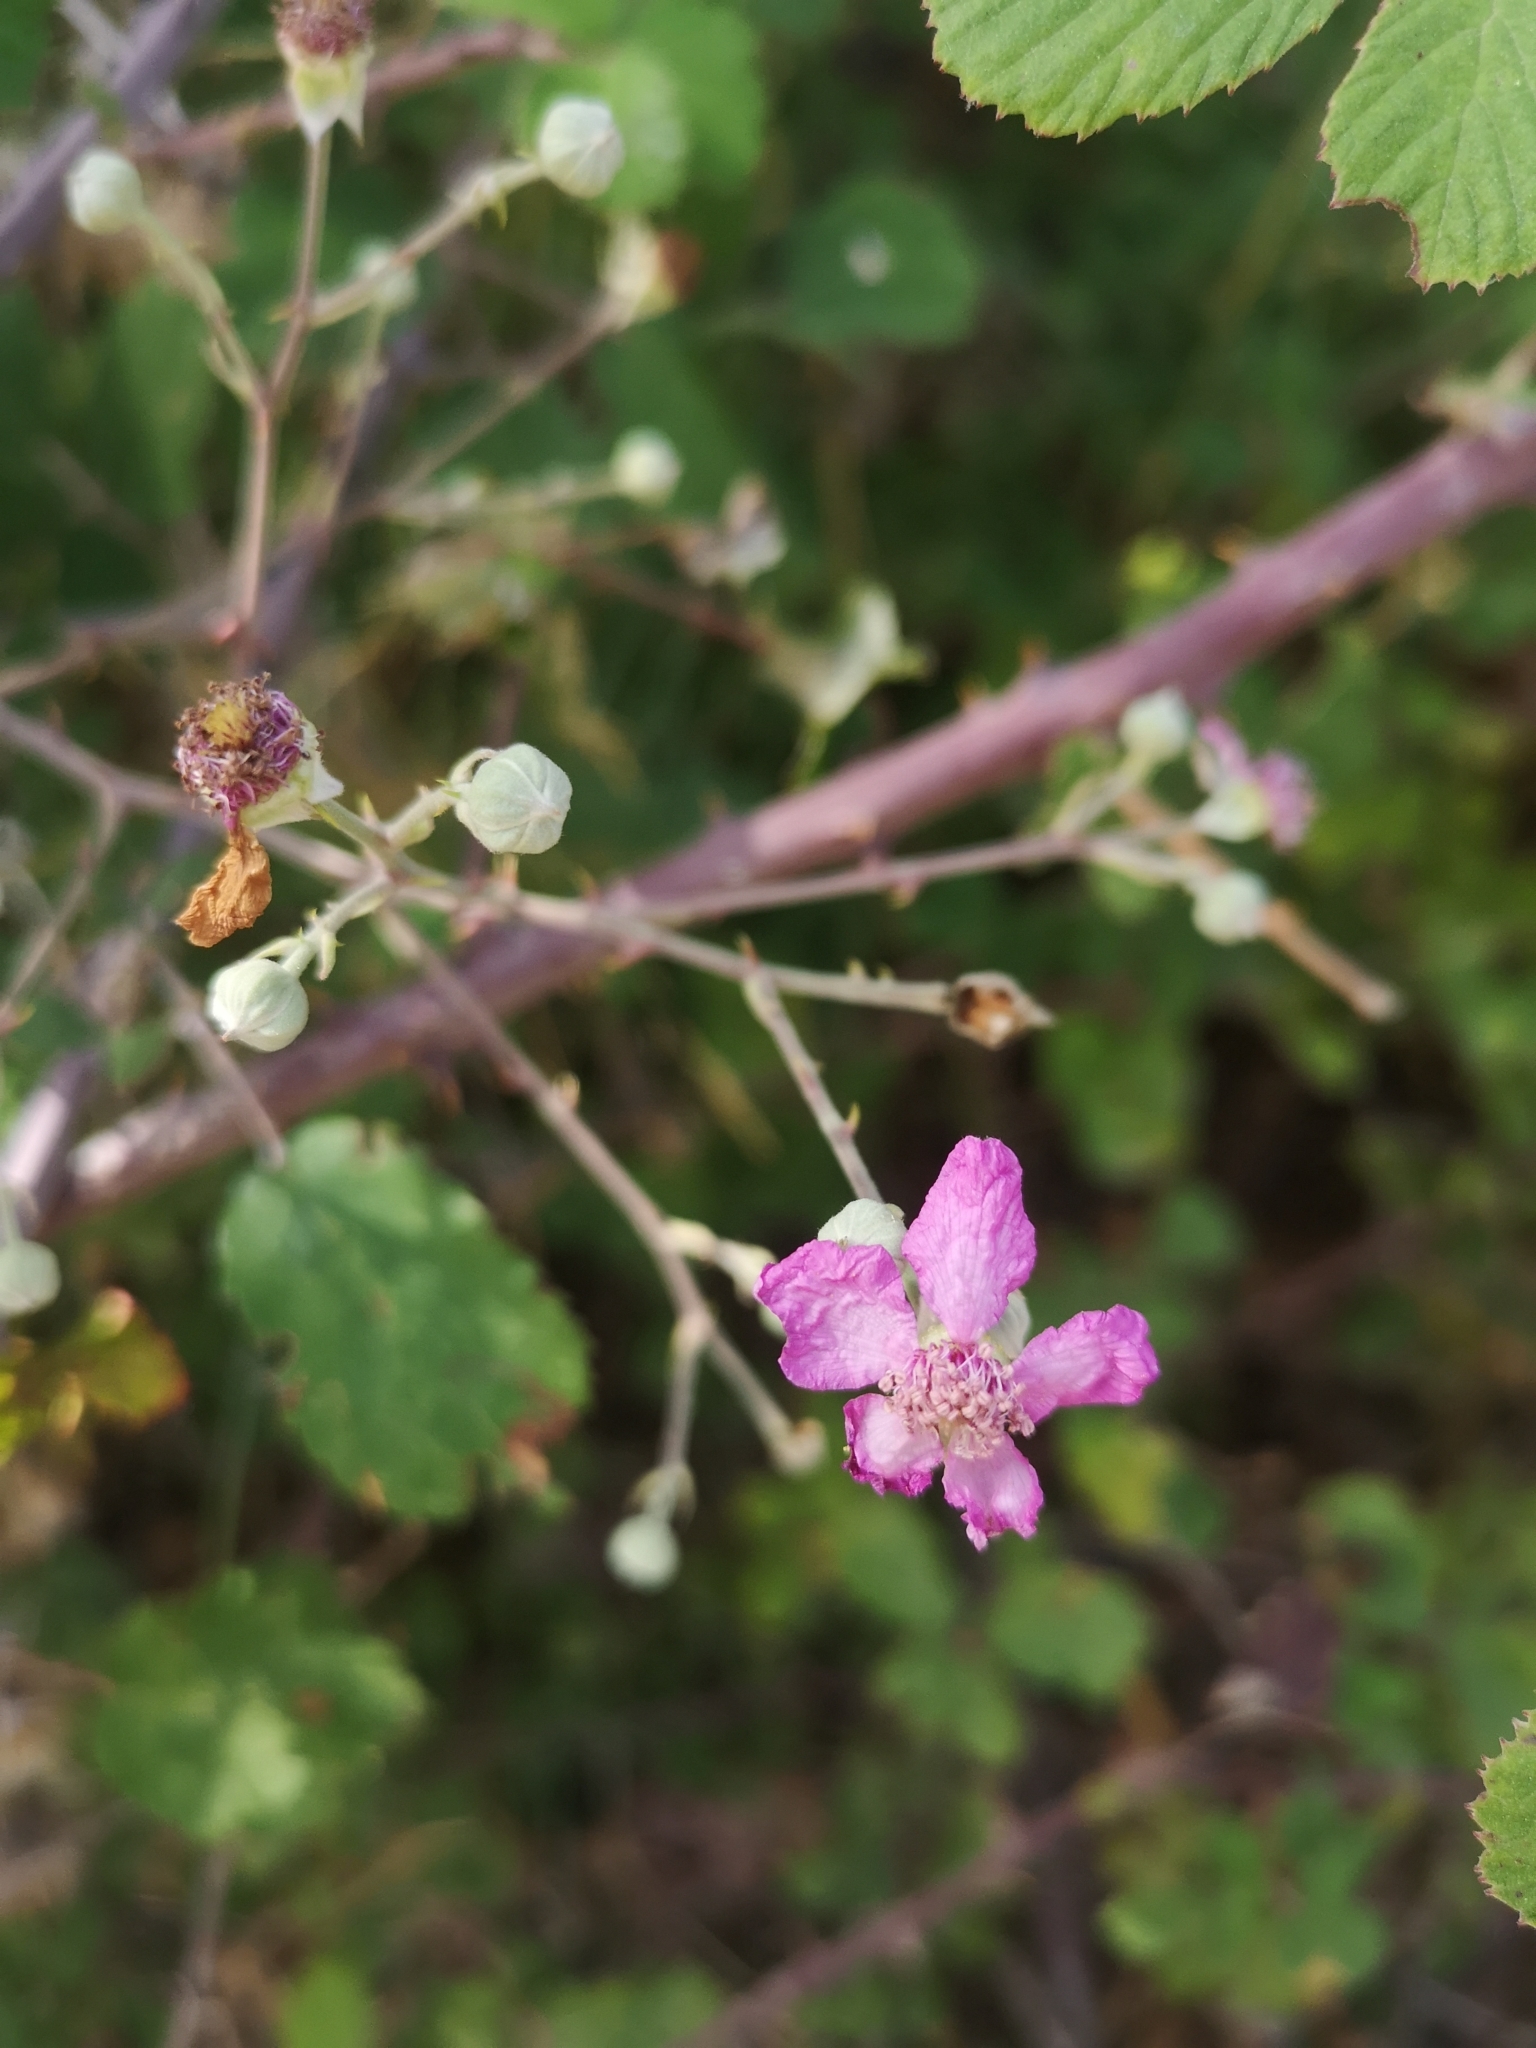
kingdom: Plantae
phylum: Tracheophyta
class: Magnoliopsida
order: Rosales
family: Rosaceae
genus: Rubus
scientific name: Rubus sanctus
